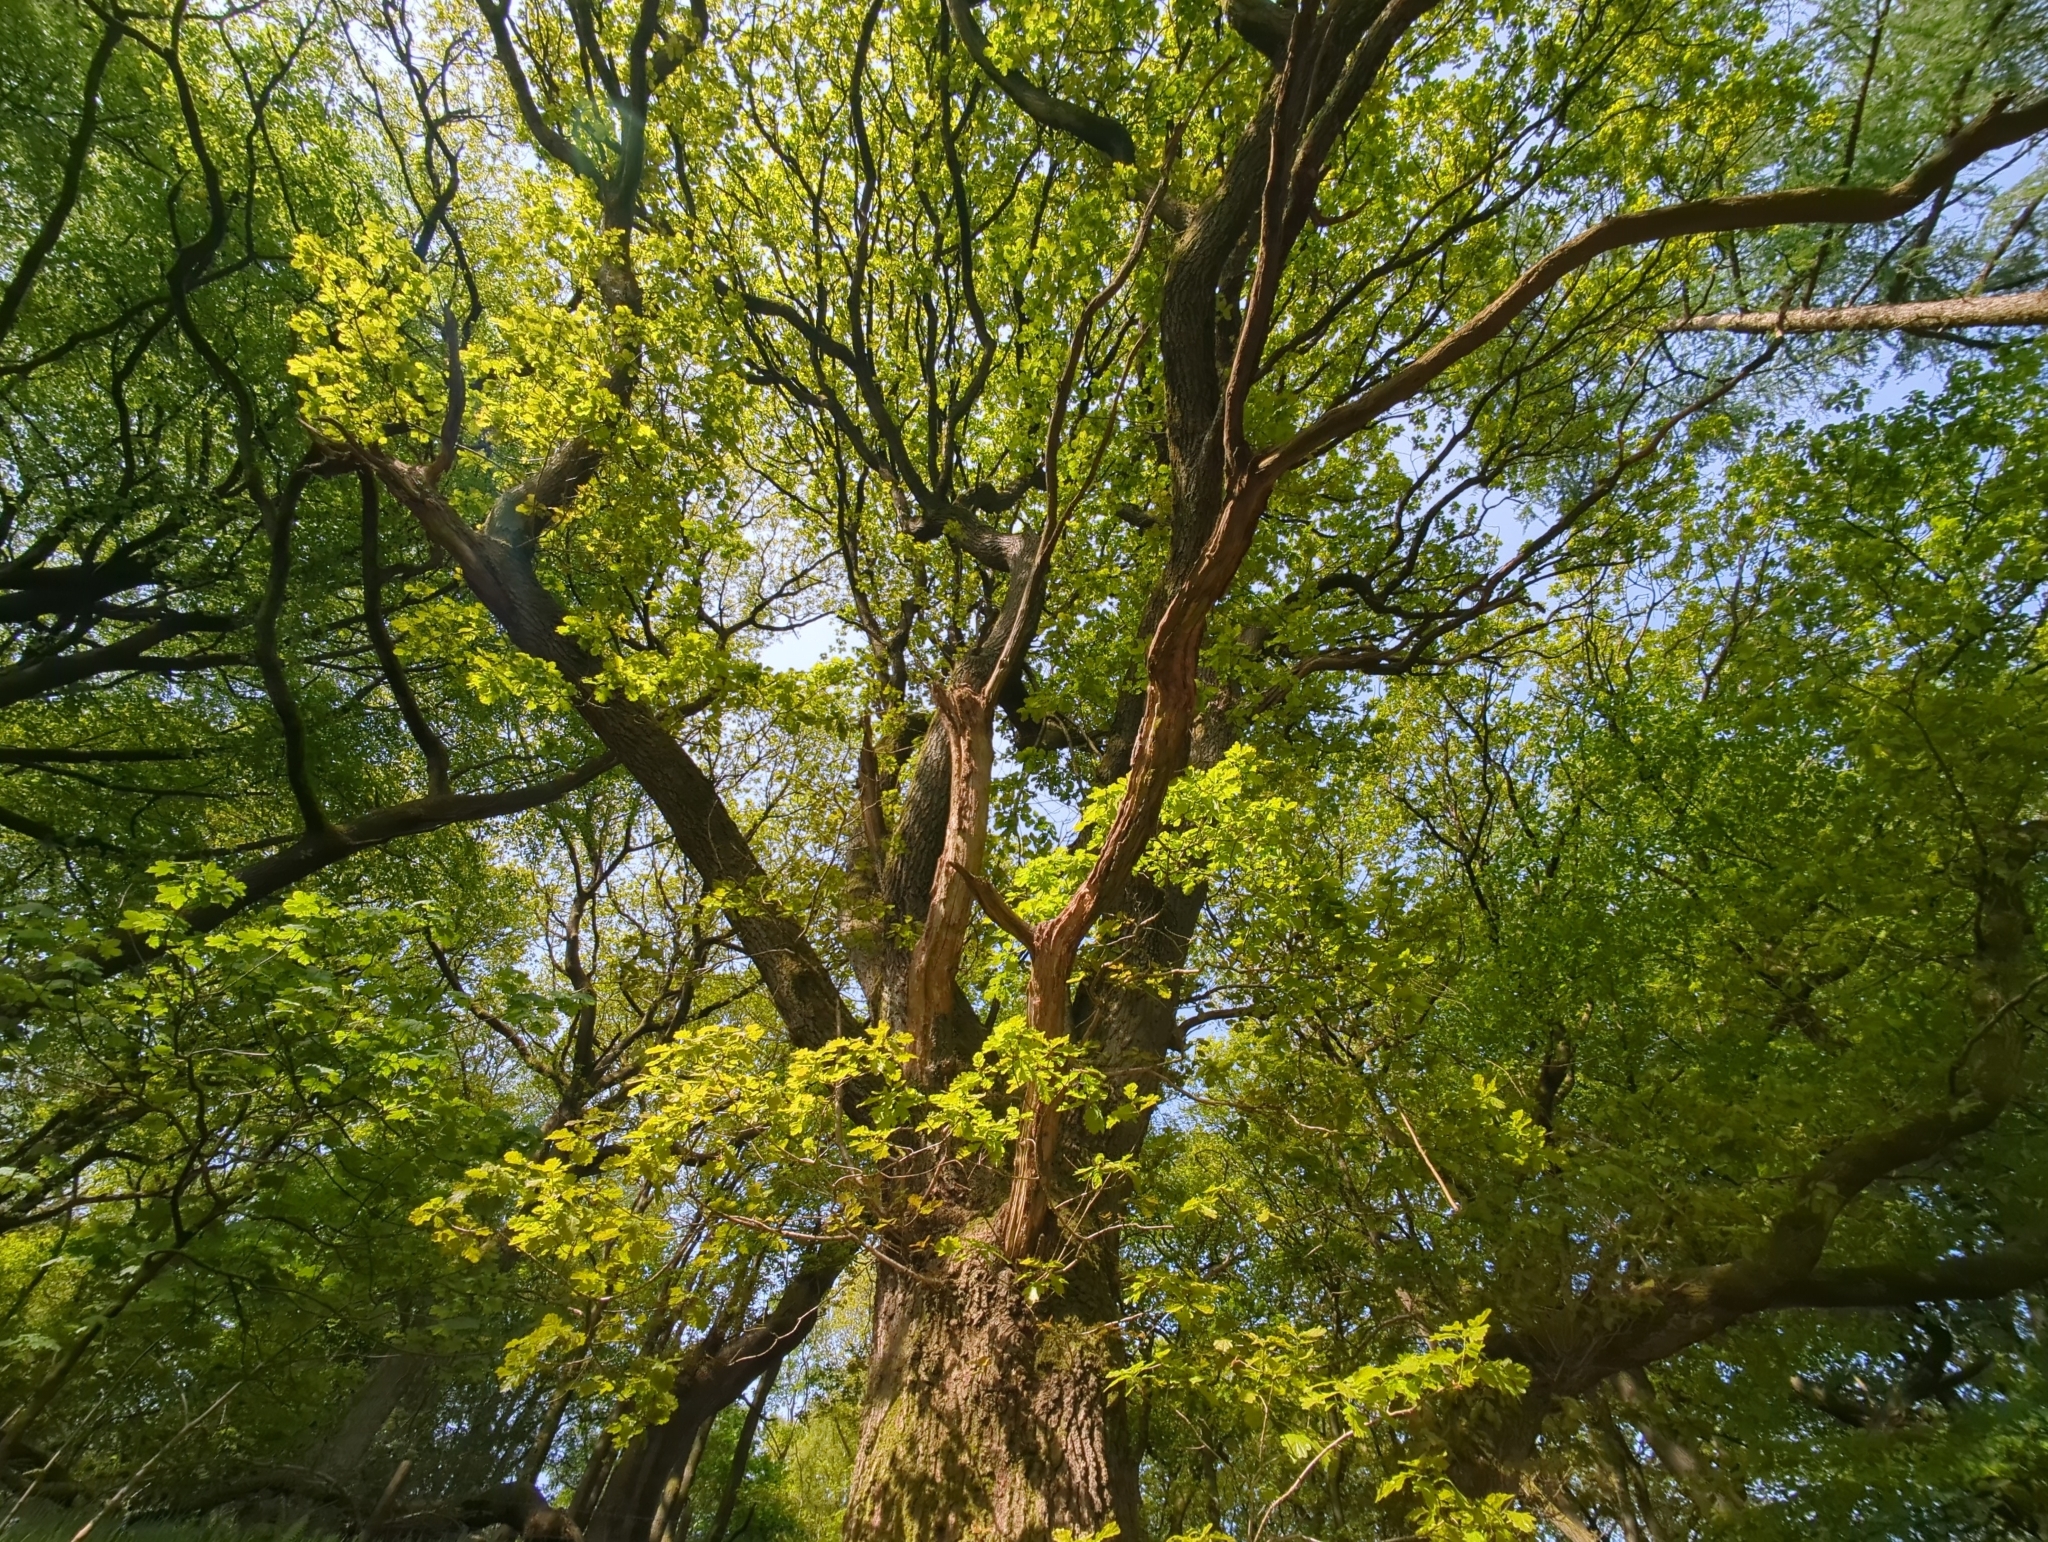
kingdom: Plantae
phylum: Tracheophyta
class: Magnoliopsida
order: Fagales
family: Fagaceae
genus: Quercus
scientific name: Quercus robur
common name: Pedunculate oak
